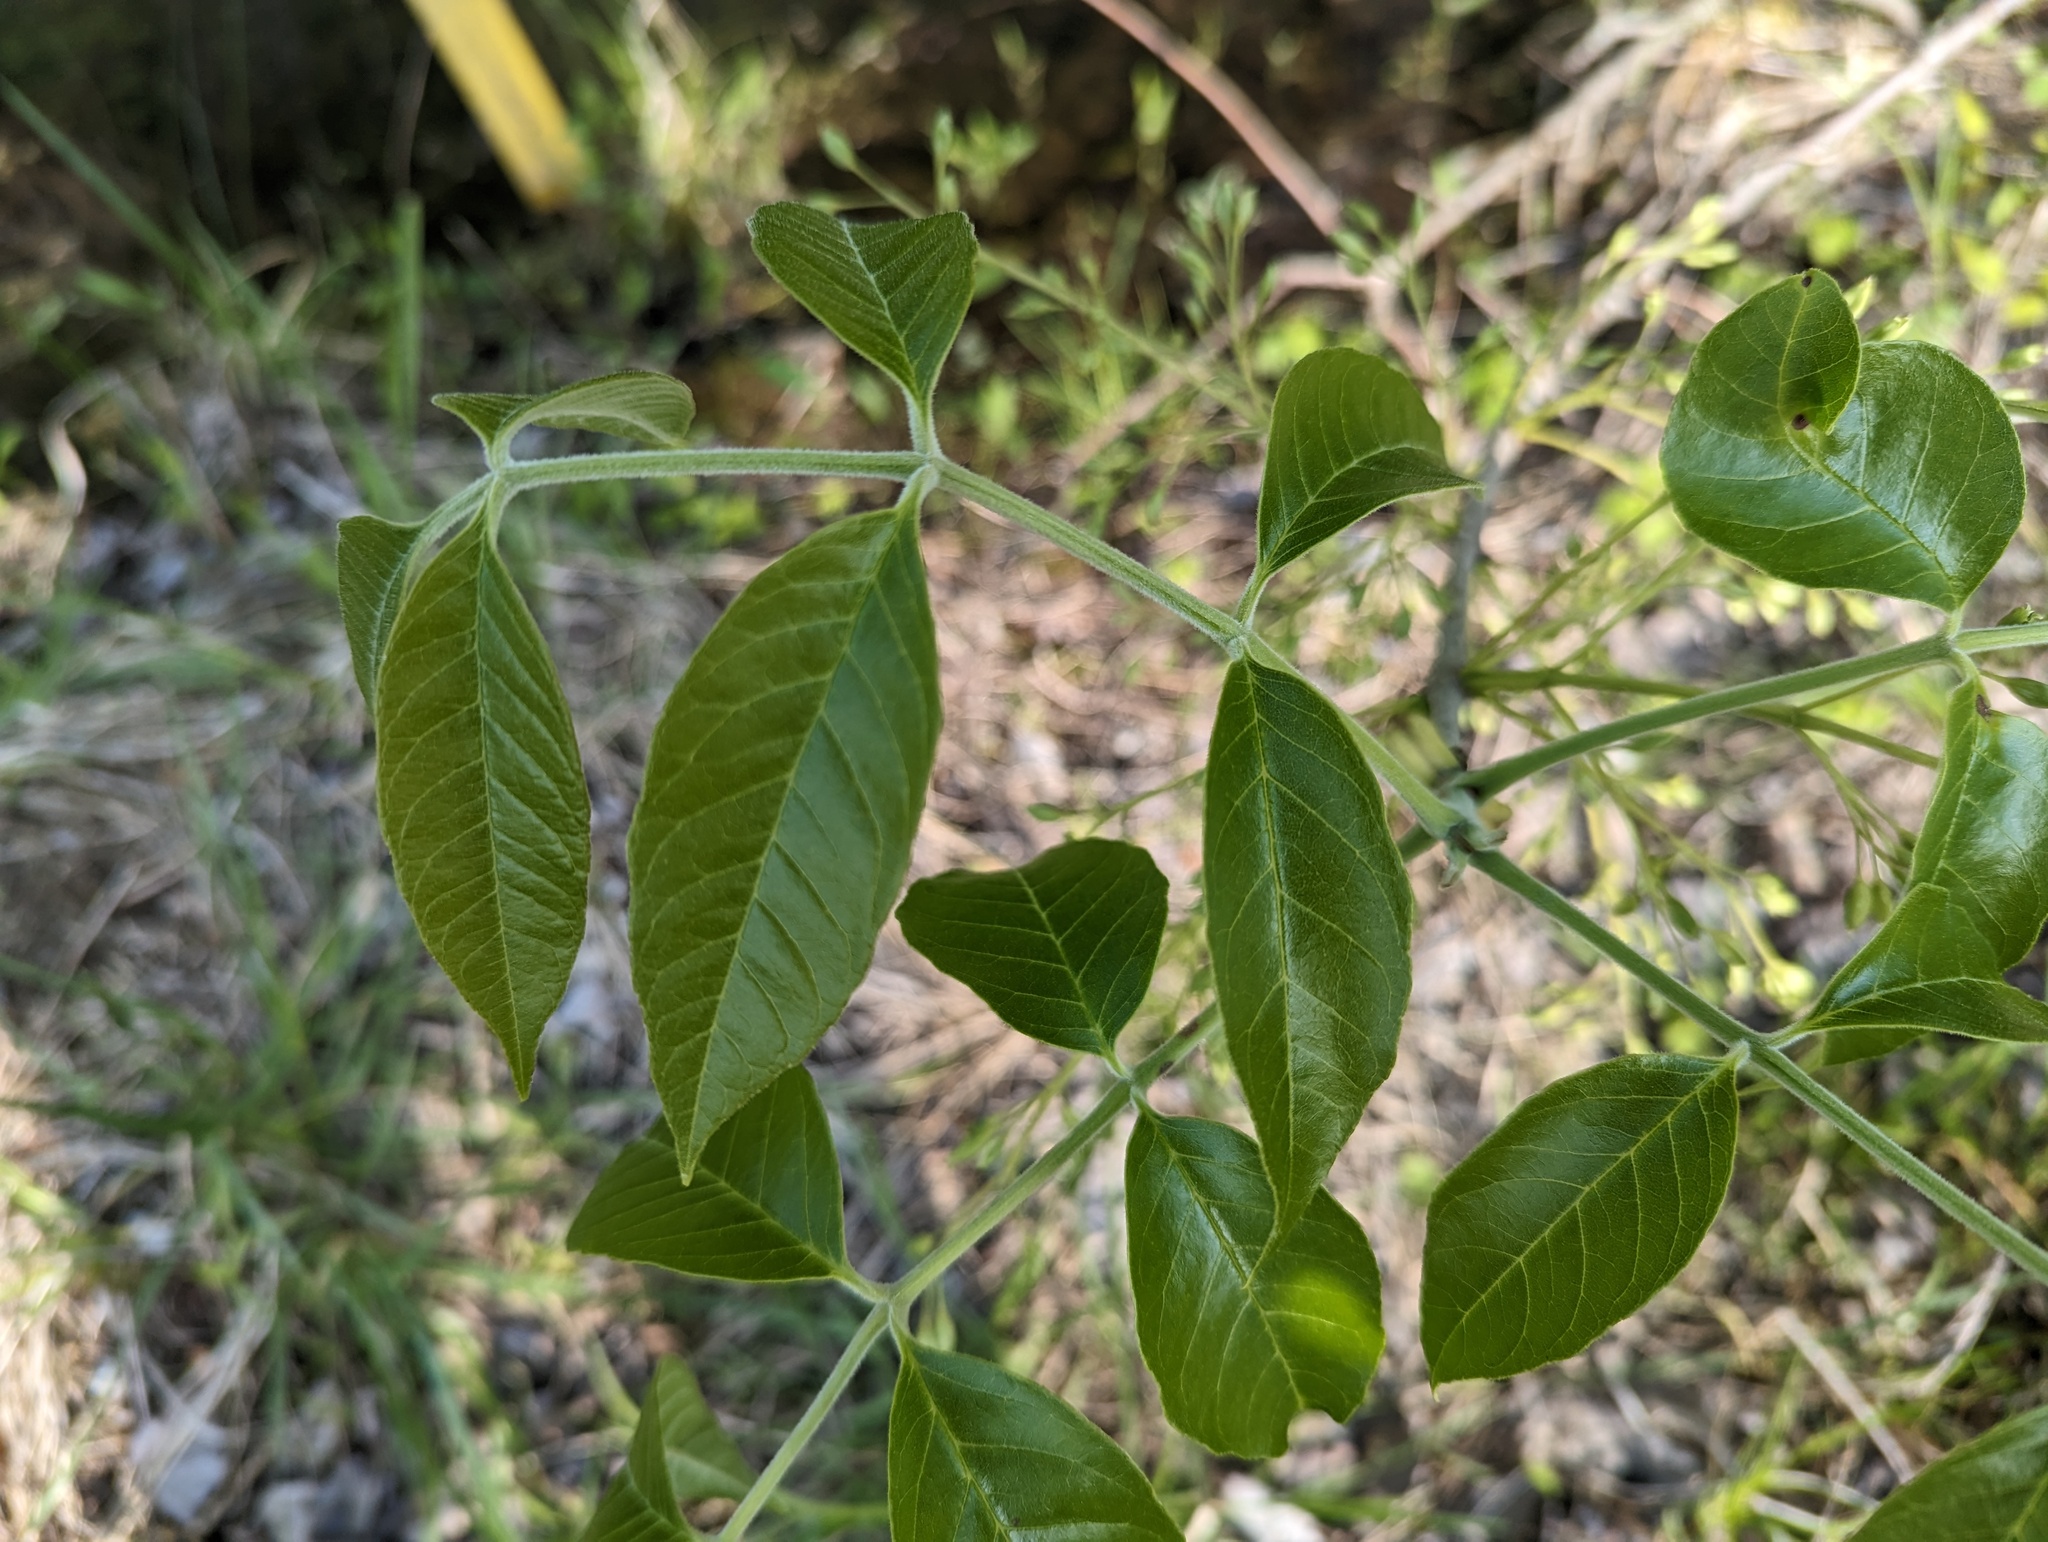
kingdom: Plantae
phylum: Tracheophyta
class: Magnoliopsida
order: Lamiales
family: Oleaceae
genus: Fraxinus
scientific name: Fraxinus profunda
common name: Pumpkin ash
